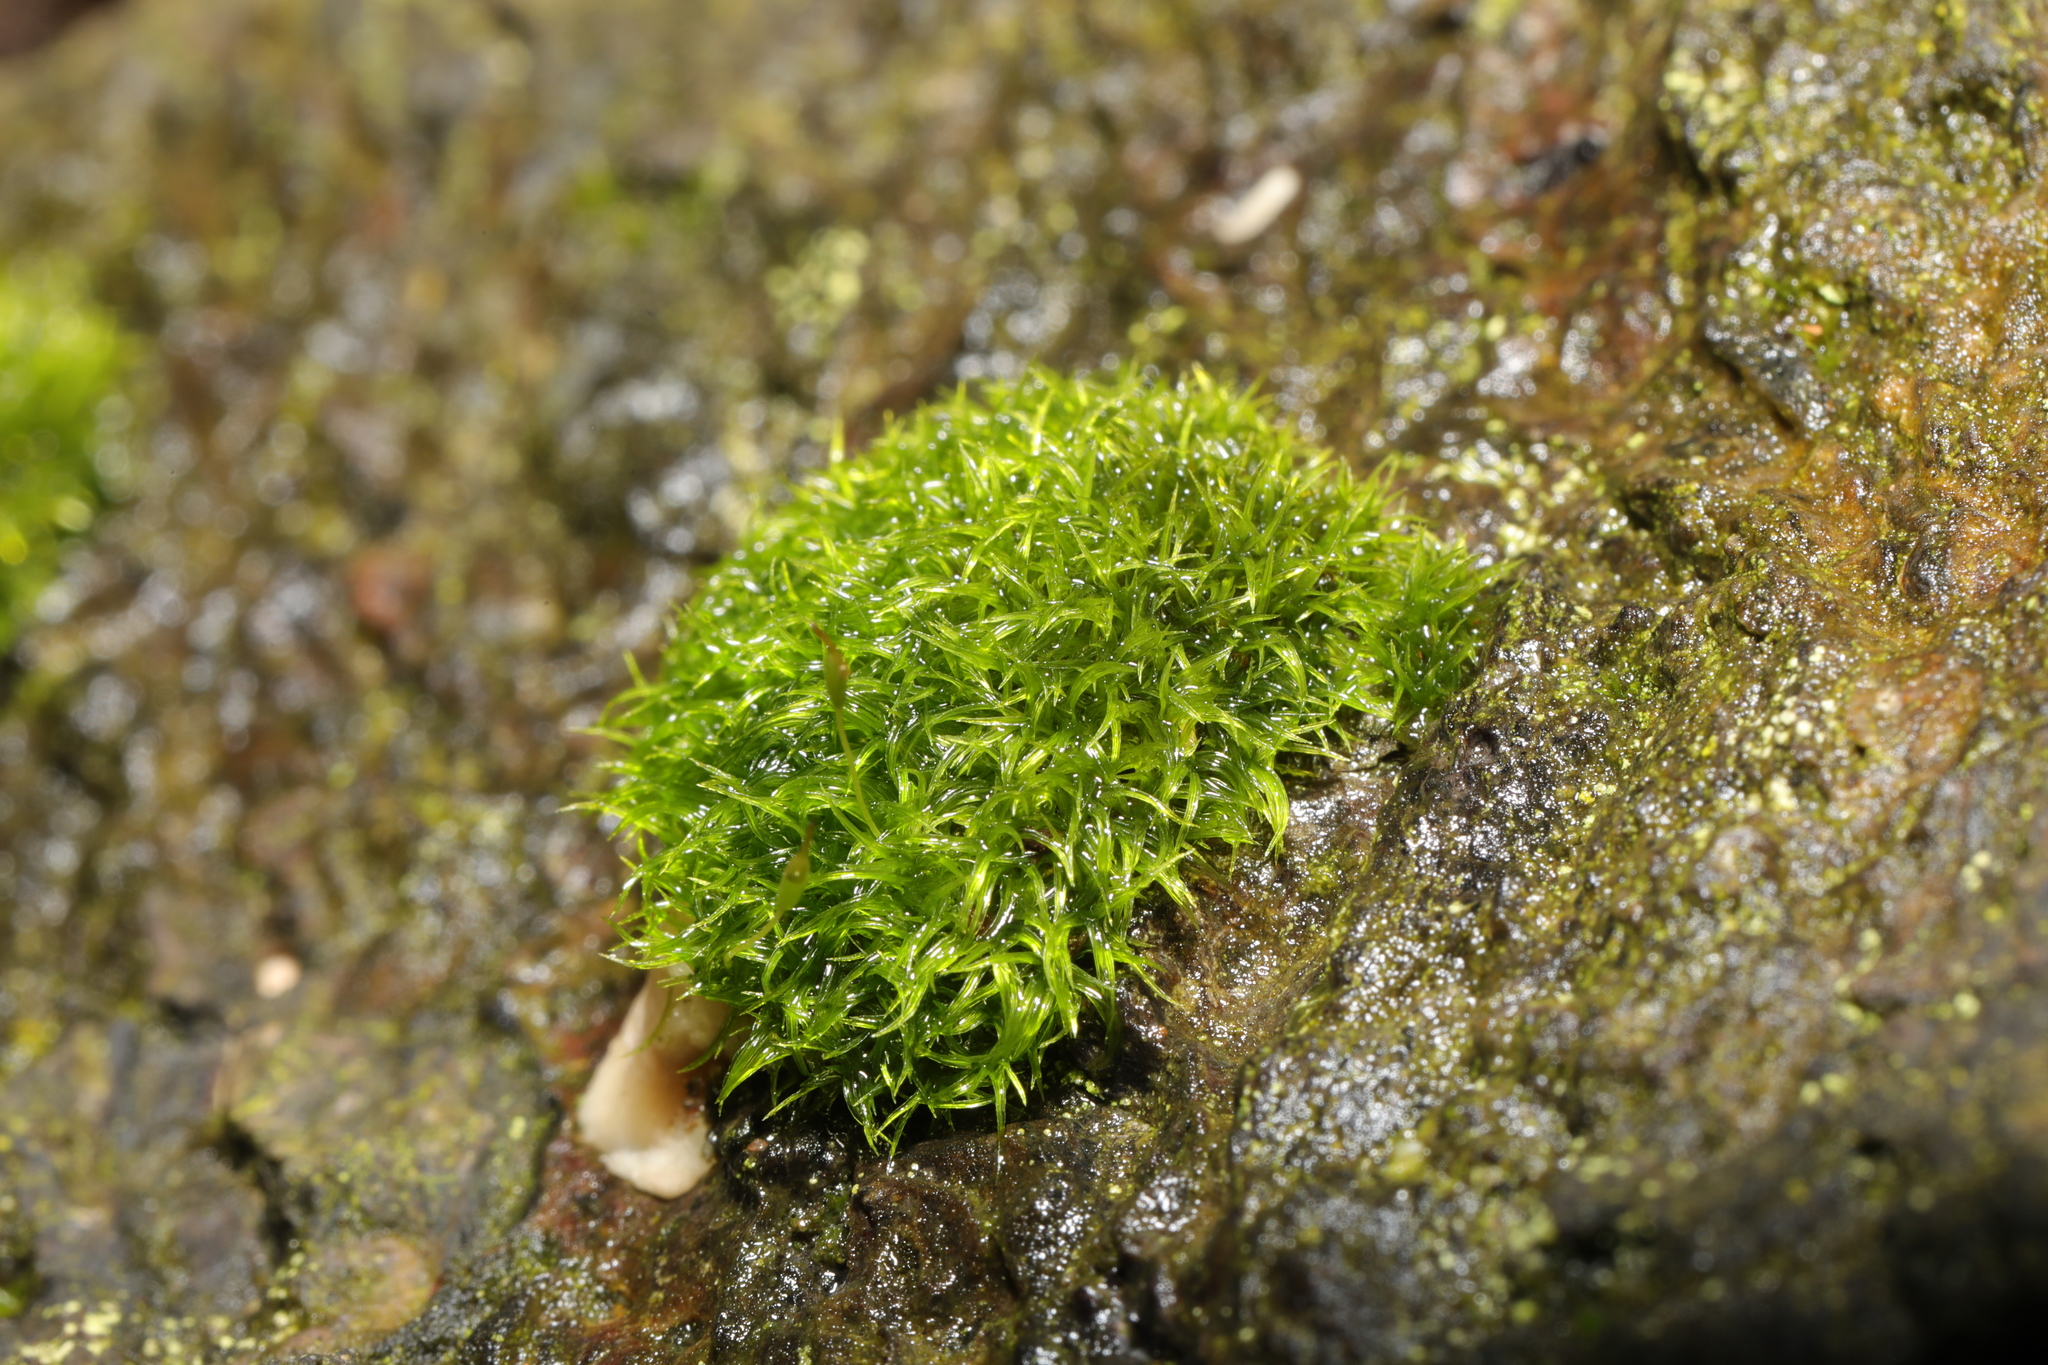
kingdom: Plantae
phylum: Bryophyta
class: Bryopsida
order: Dicranales
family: Rhabdoweisiaceae
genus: Dicranoweisia
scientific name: Dicranoweisia cirrata
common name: Common pincushion
